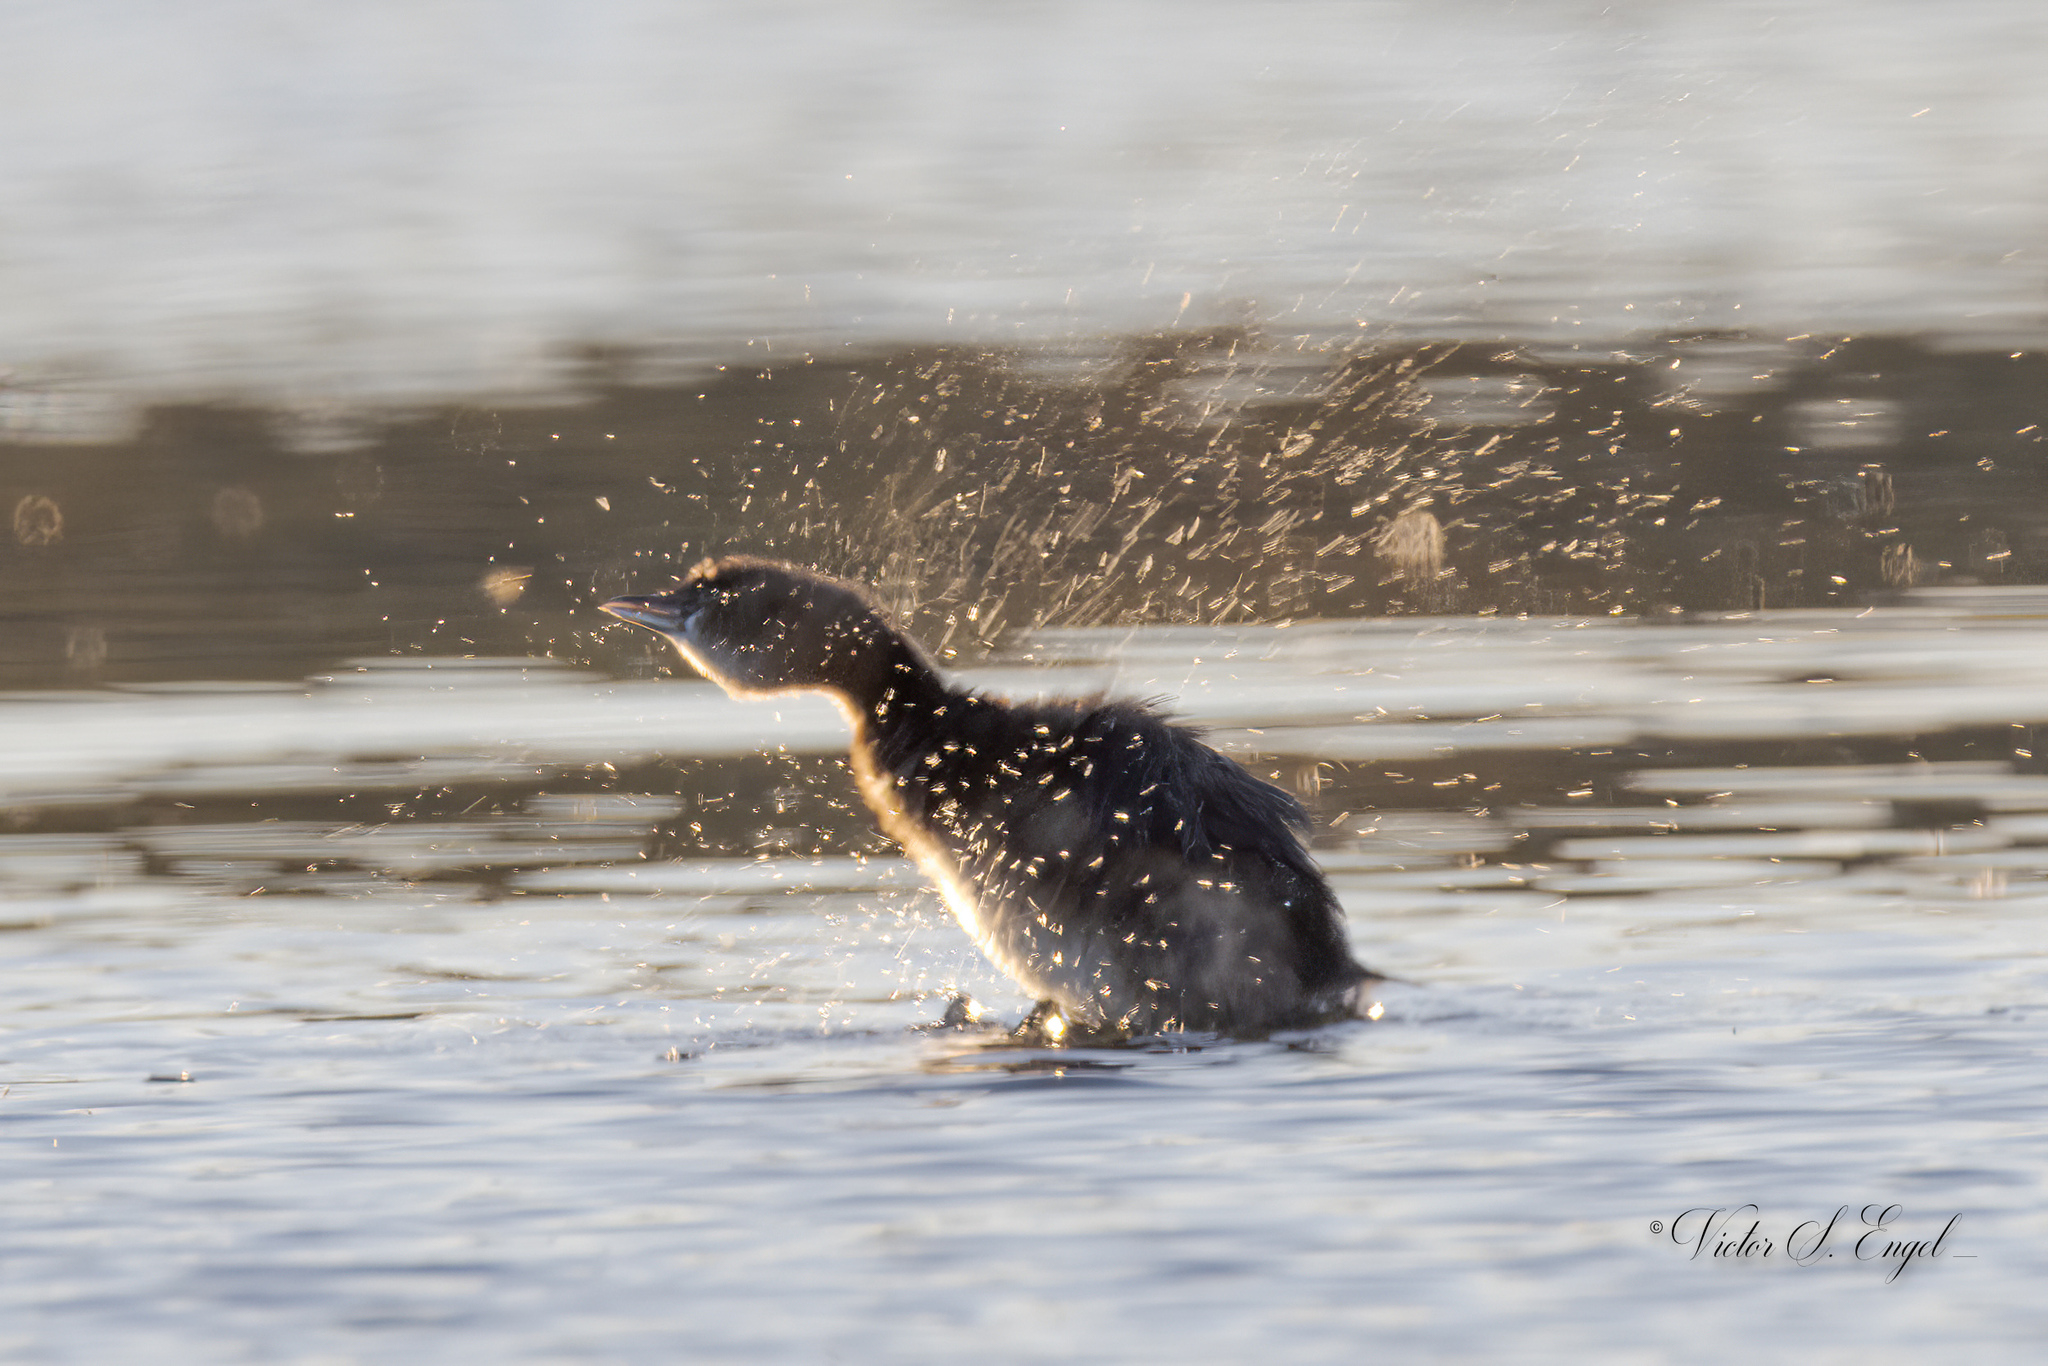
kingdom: Animalia
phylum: Chordata
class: Aves
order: Podicipediformes
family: Podicipedidae
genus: Podilymbus
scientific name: Podilymbus podiceps
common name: Pied-billed grebe
